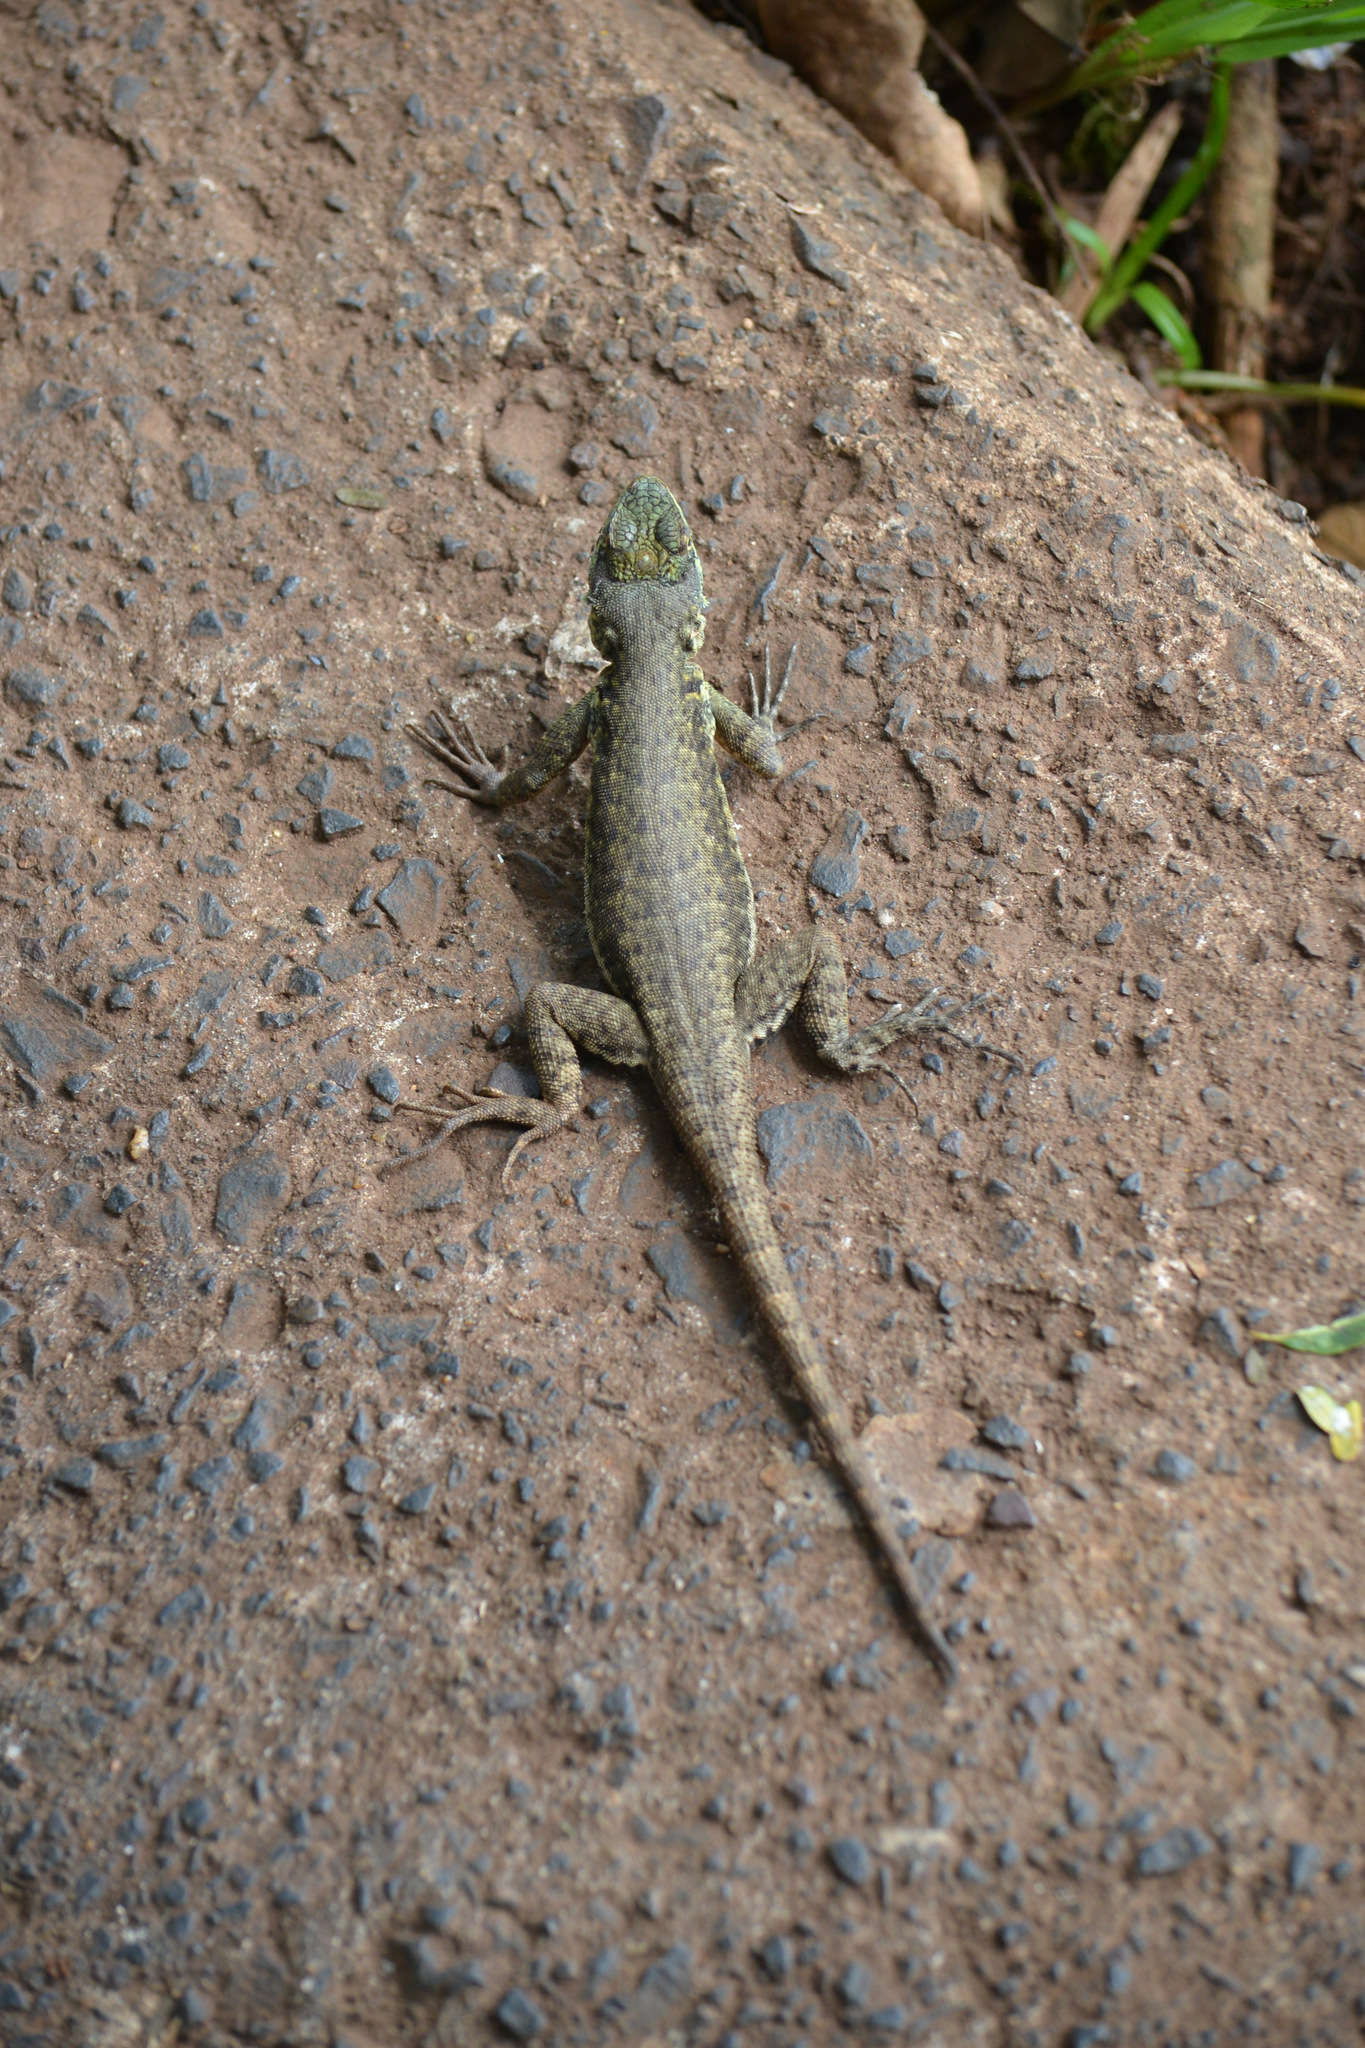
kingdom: Animalia
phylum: Chordata
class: Squamata
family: Tropiduridae
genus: Tropidurus
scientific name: Tropidurus catalanensis
